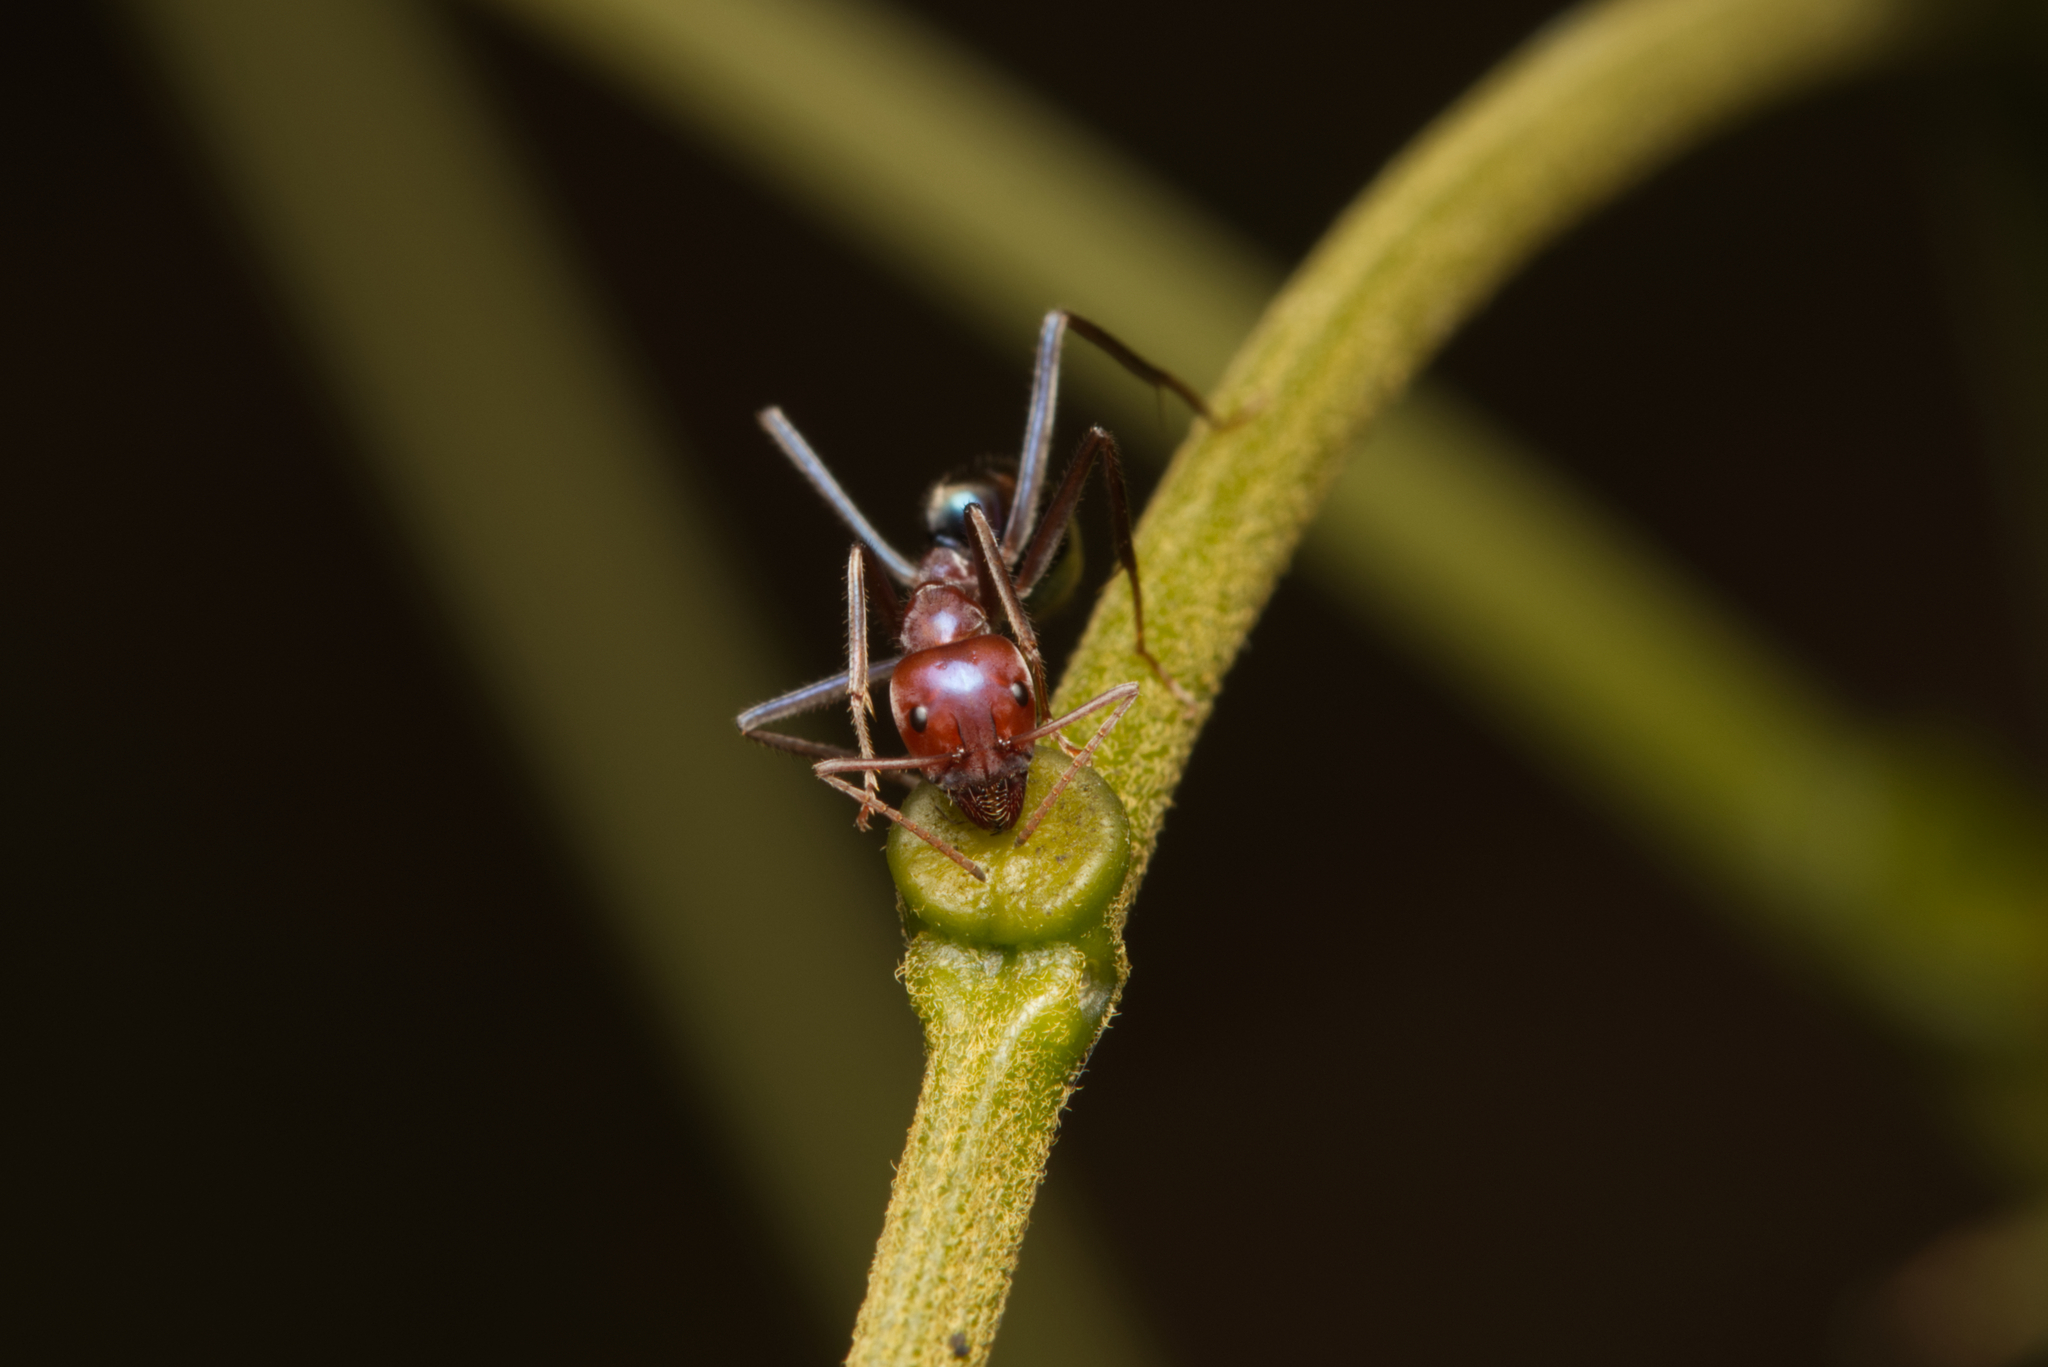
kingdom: Animalia
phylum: Arthropoda
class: Insecta
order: Hymenoptera
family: Formicidae
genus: Iridomyrmex
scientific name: Iridomyrmex purpureus
